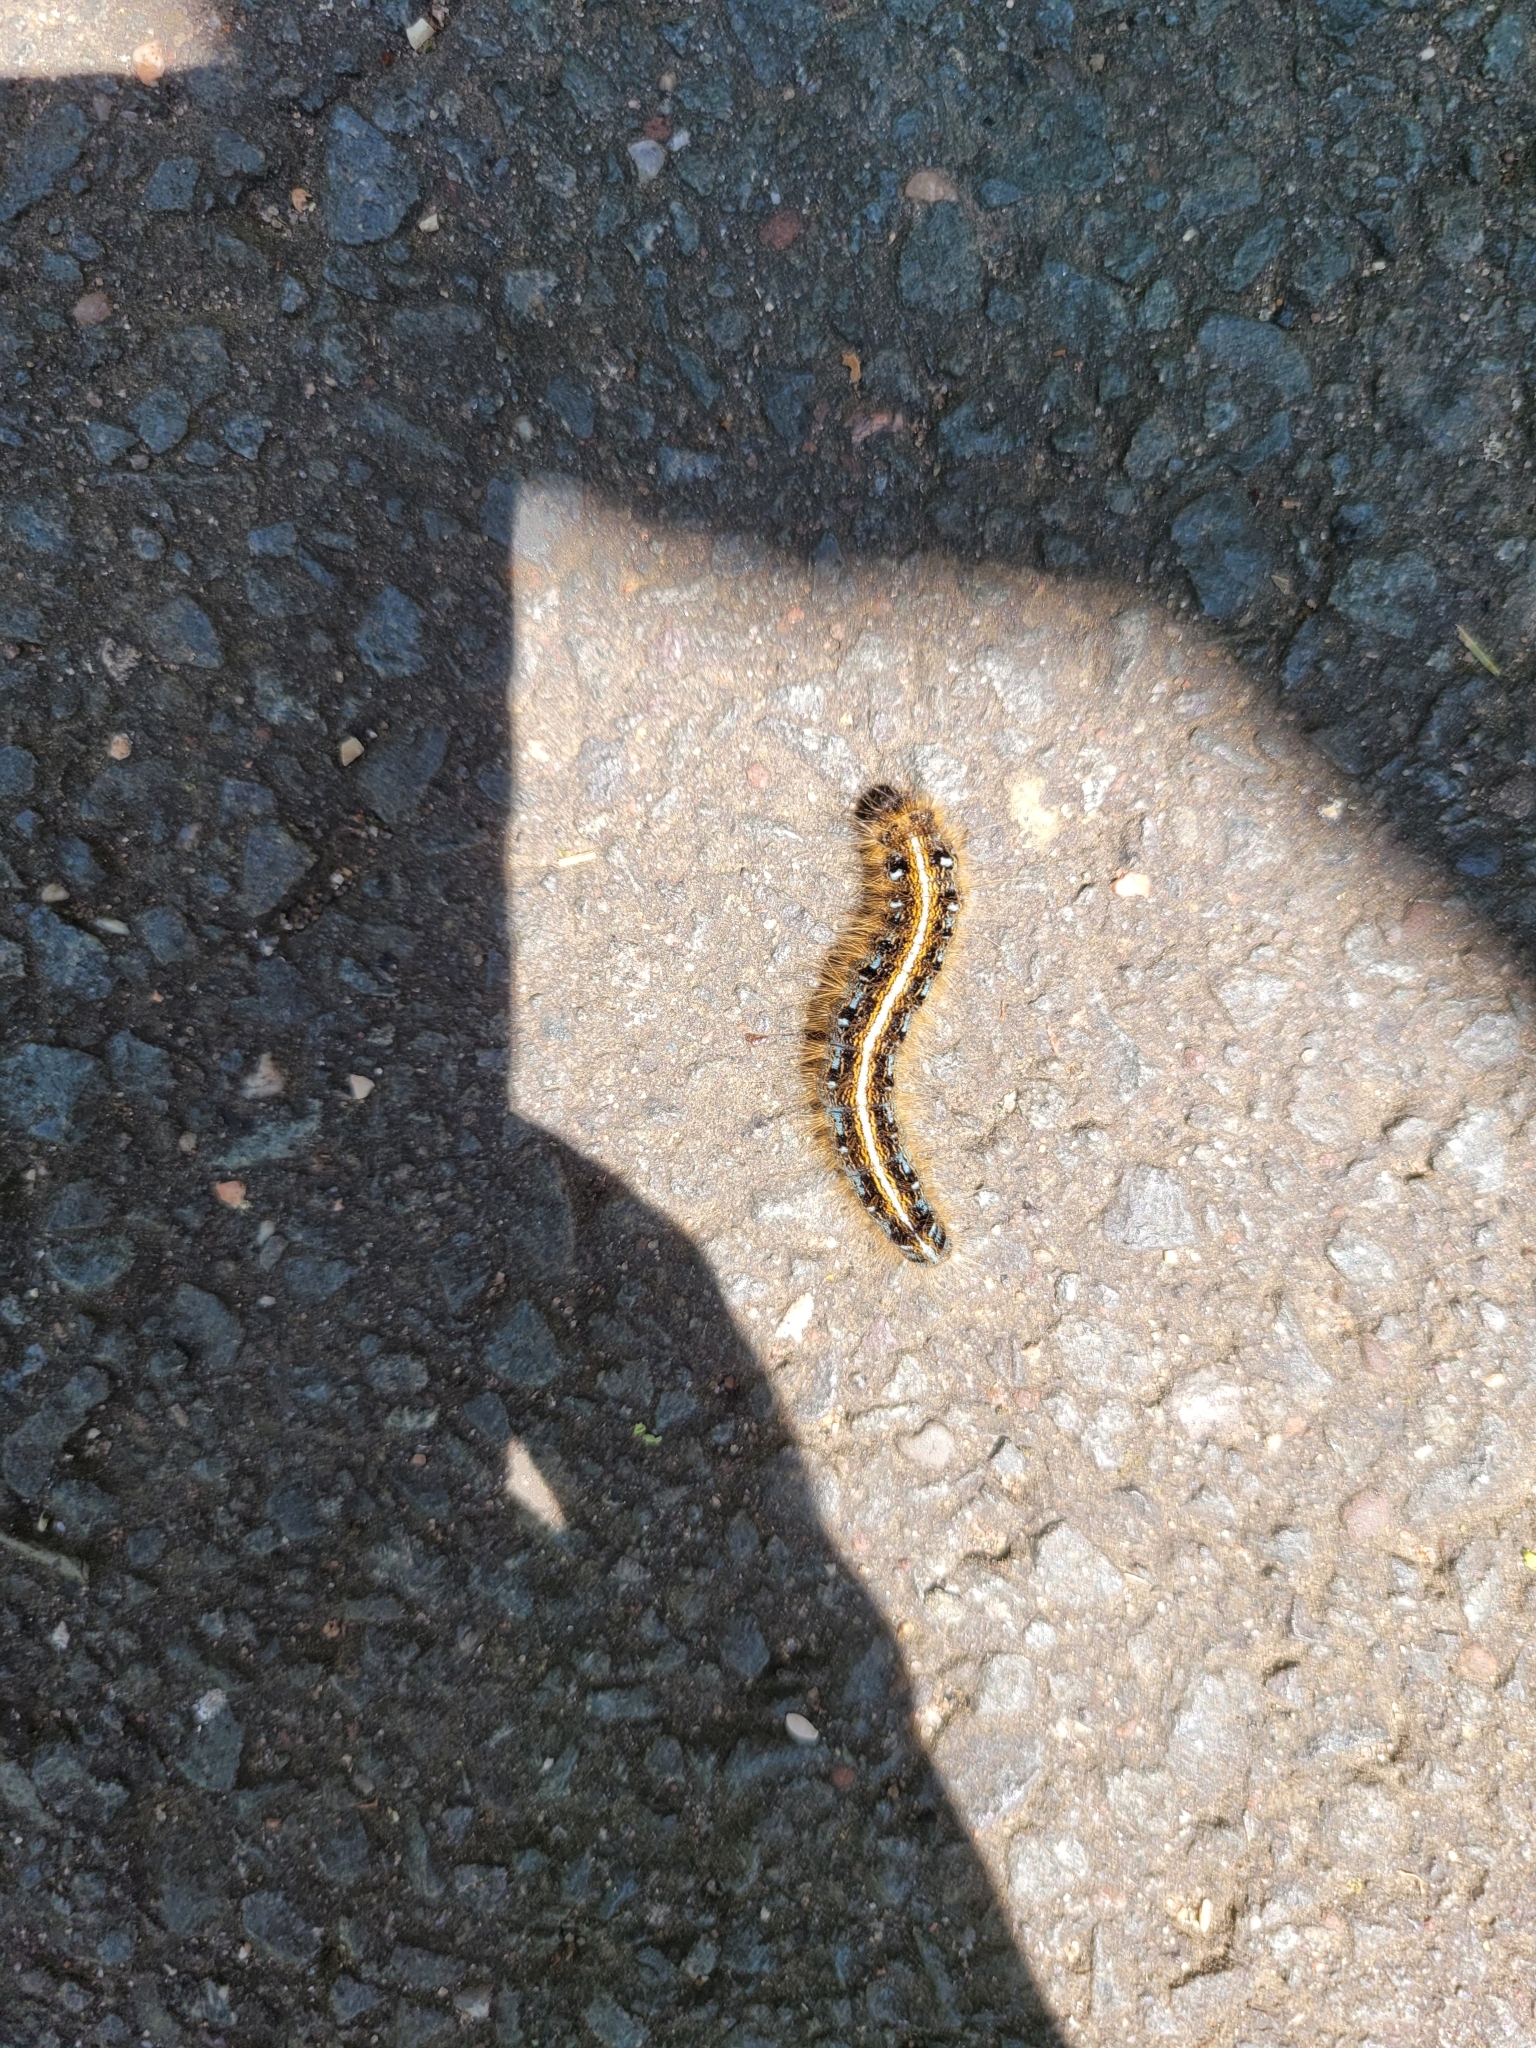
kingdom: Animalia
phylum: Arthropoda
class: Insecta
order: Lepidoptera
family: Lasiocampidae
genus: Malacosoma
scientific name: Malacosoma americana
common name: Eastern tent caterpillar moth
